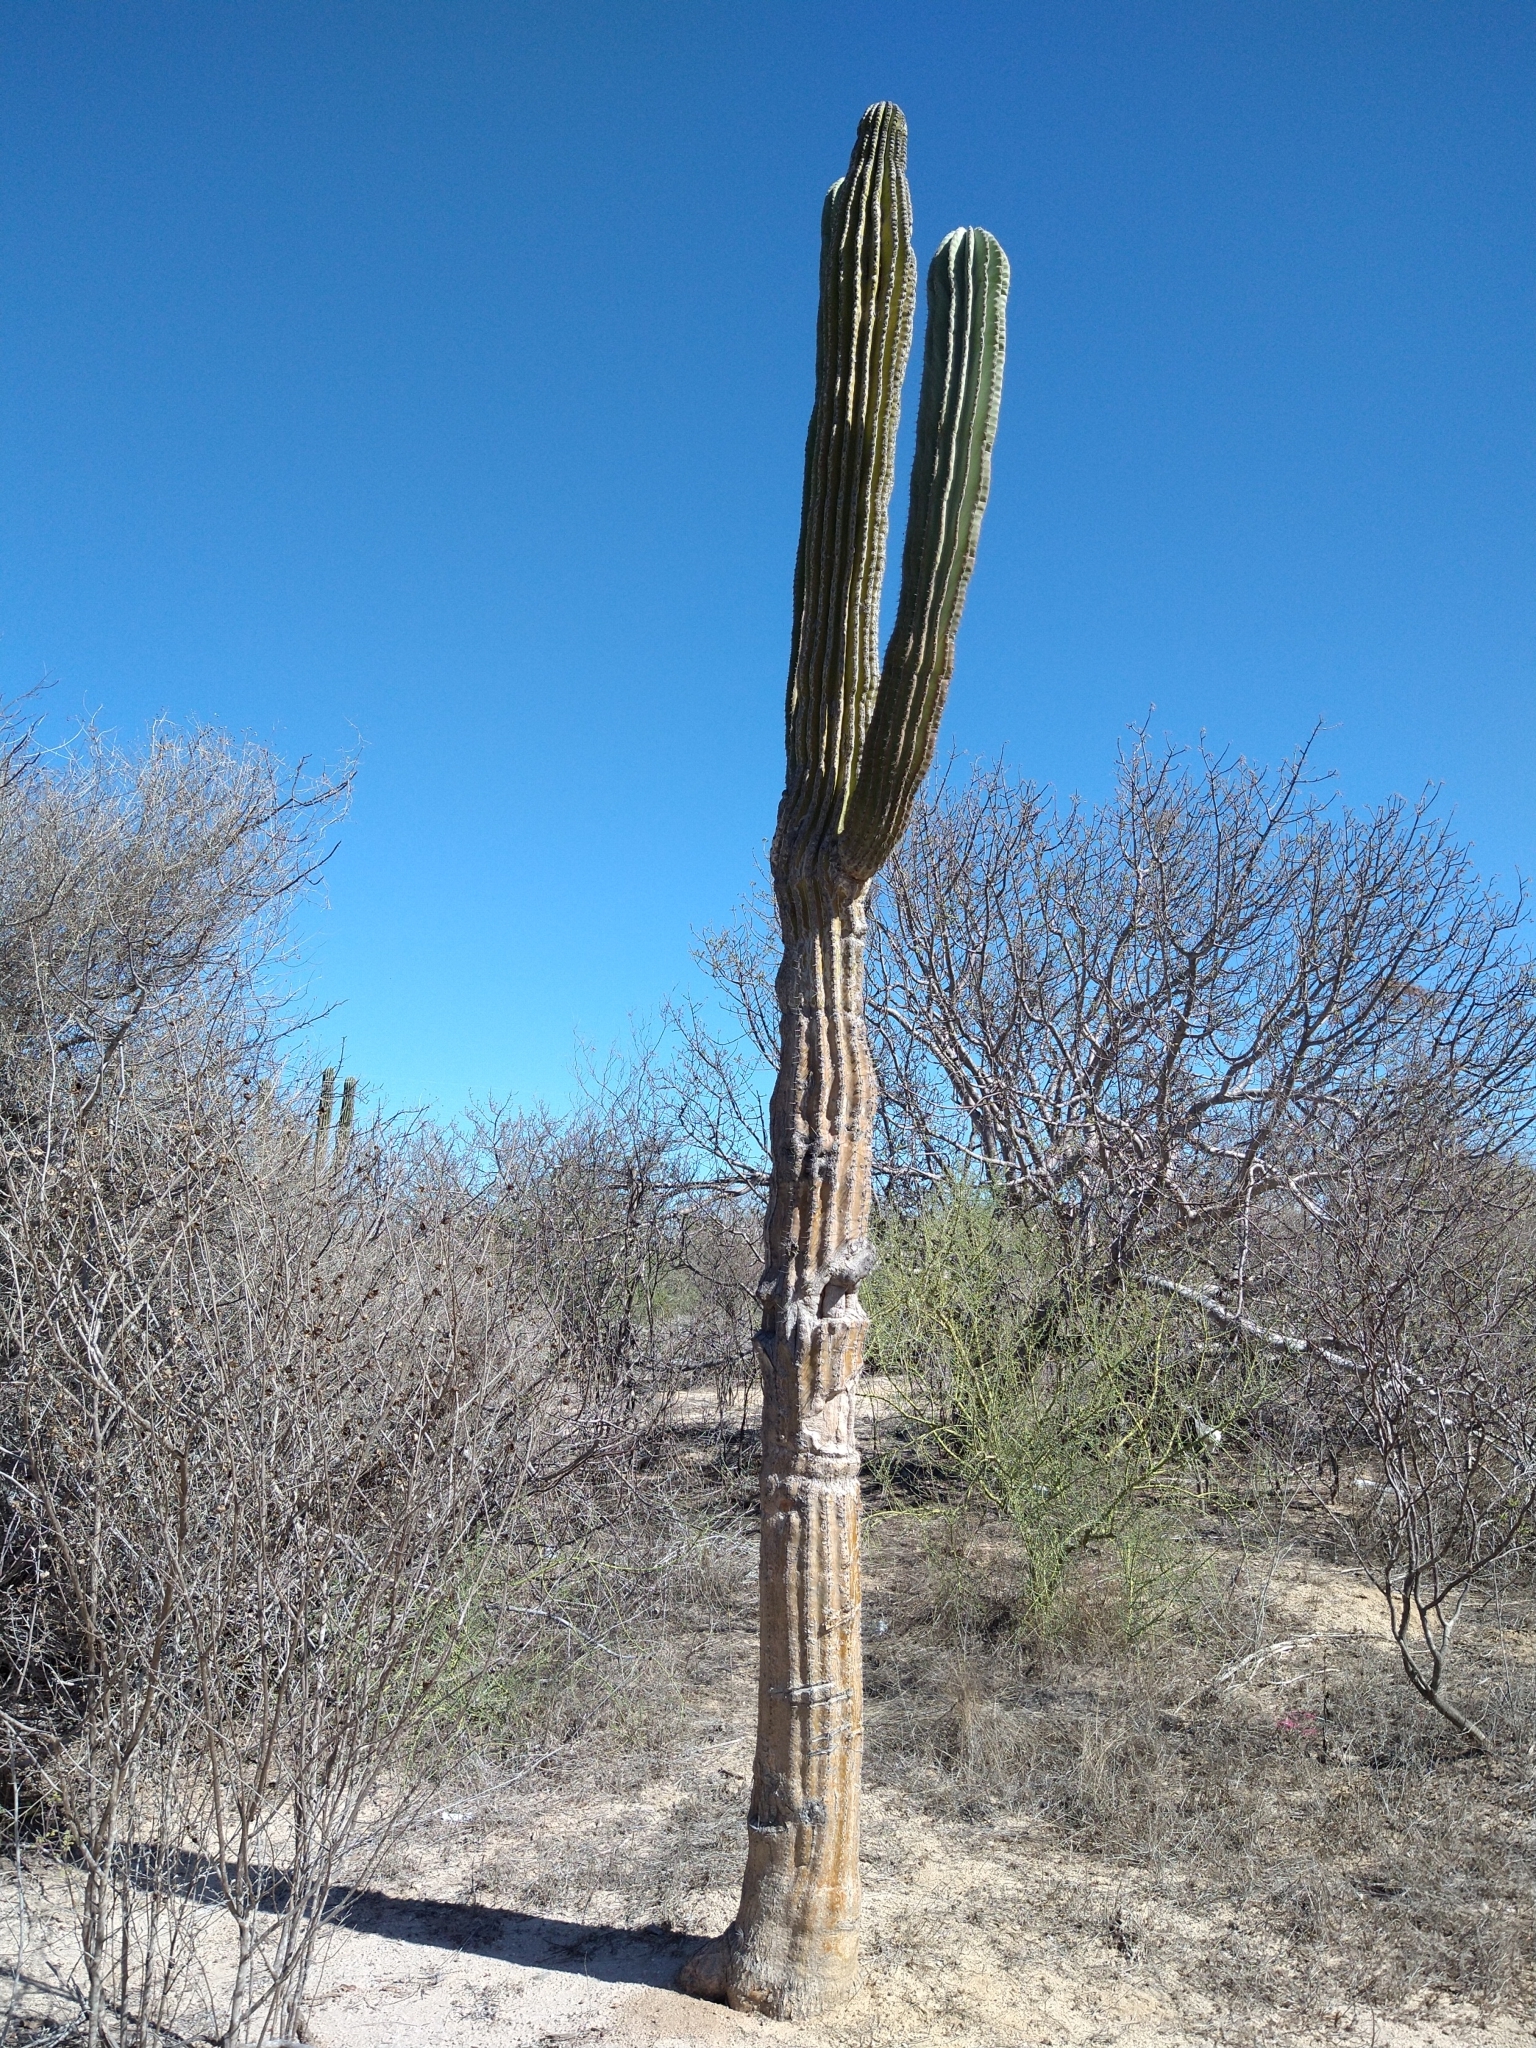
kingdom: Plantae
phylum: Tracheophyta
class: Magnoliopsida
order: Caryophyllales
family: Cactaceae
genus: Pachycereus
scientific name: Pachycereus pringlei
